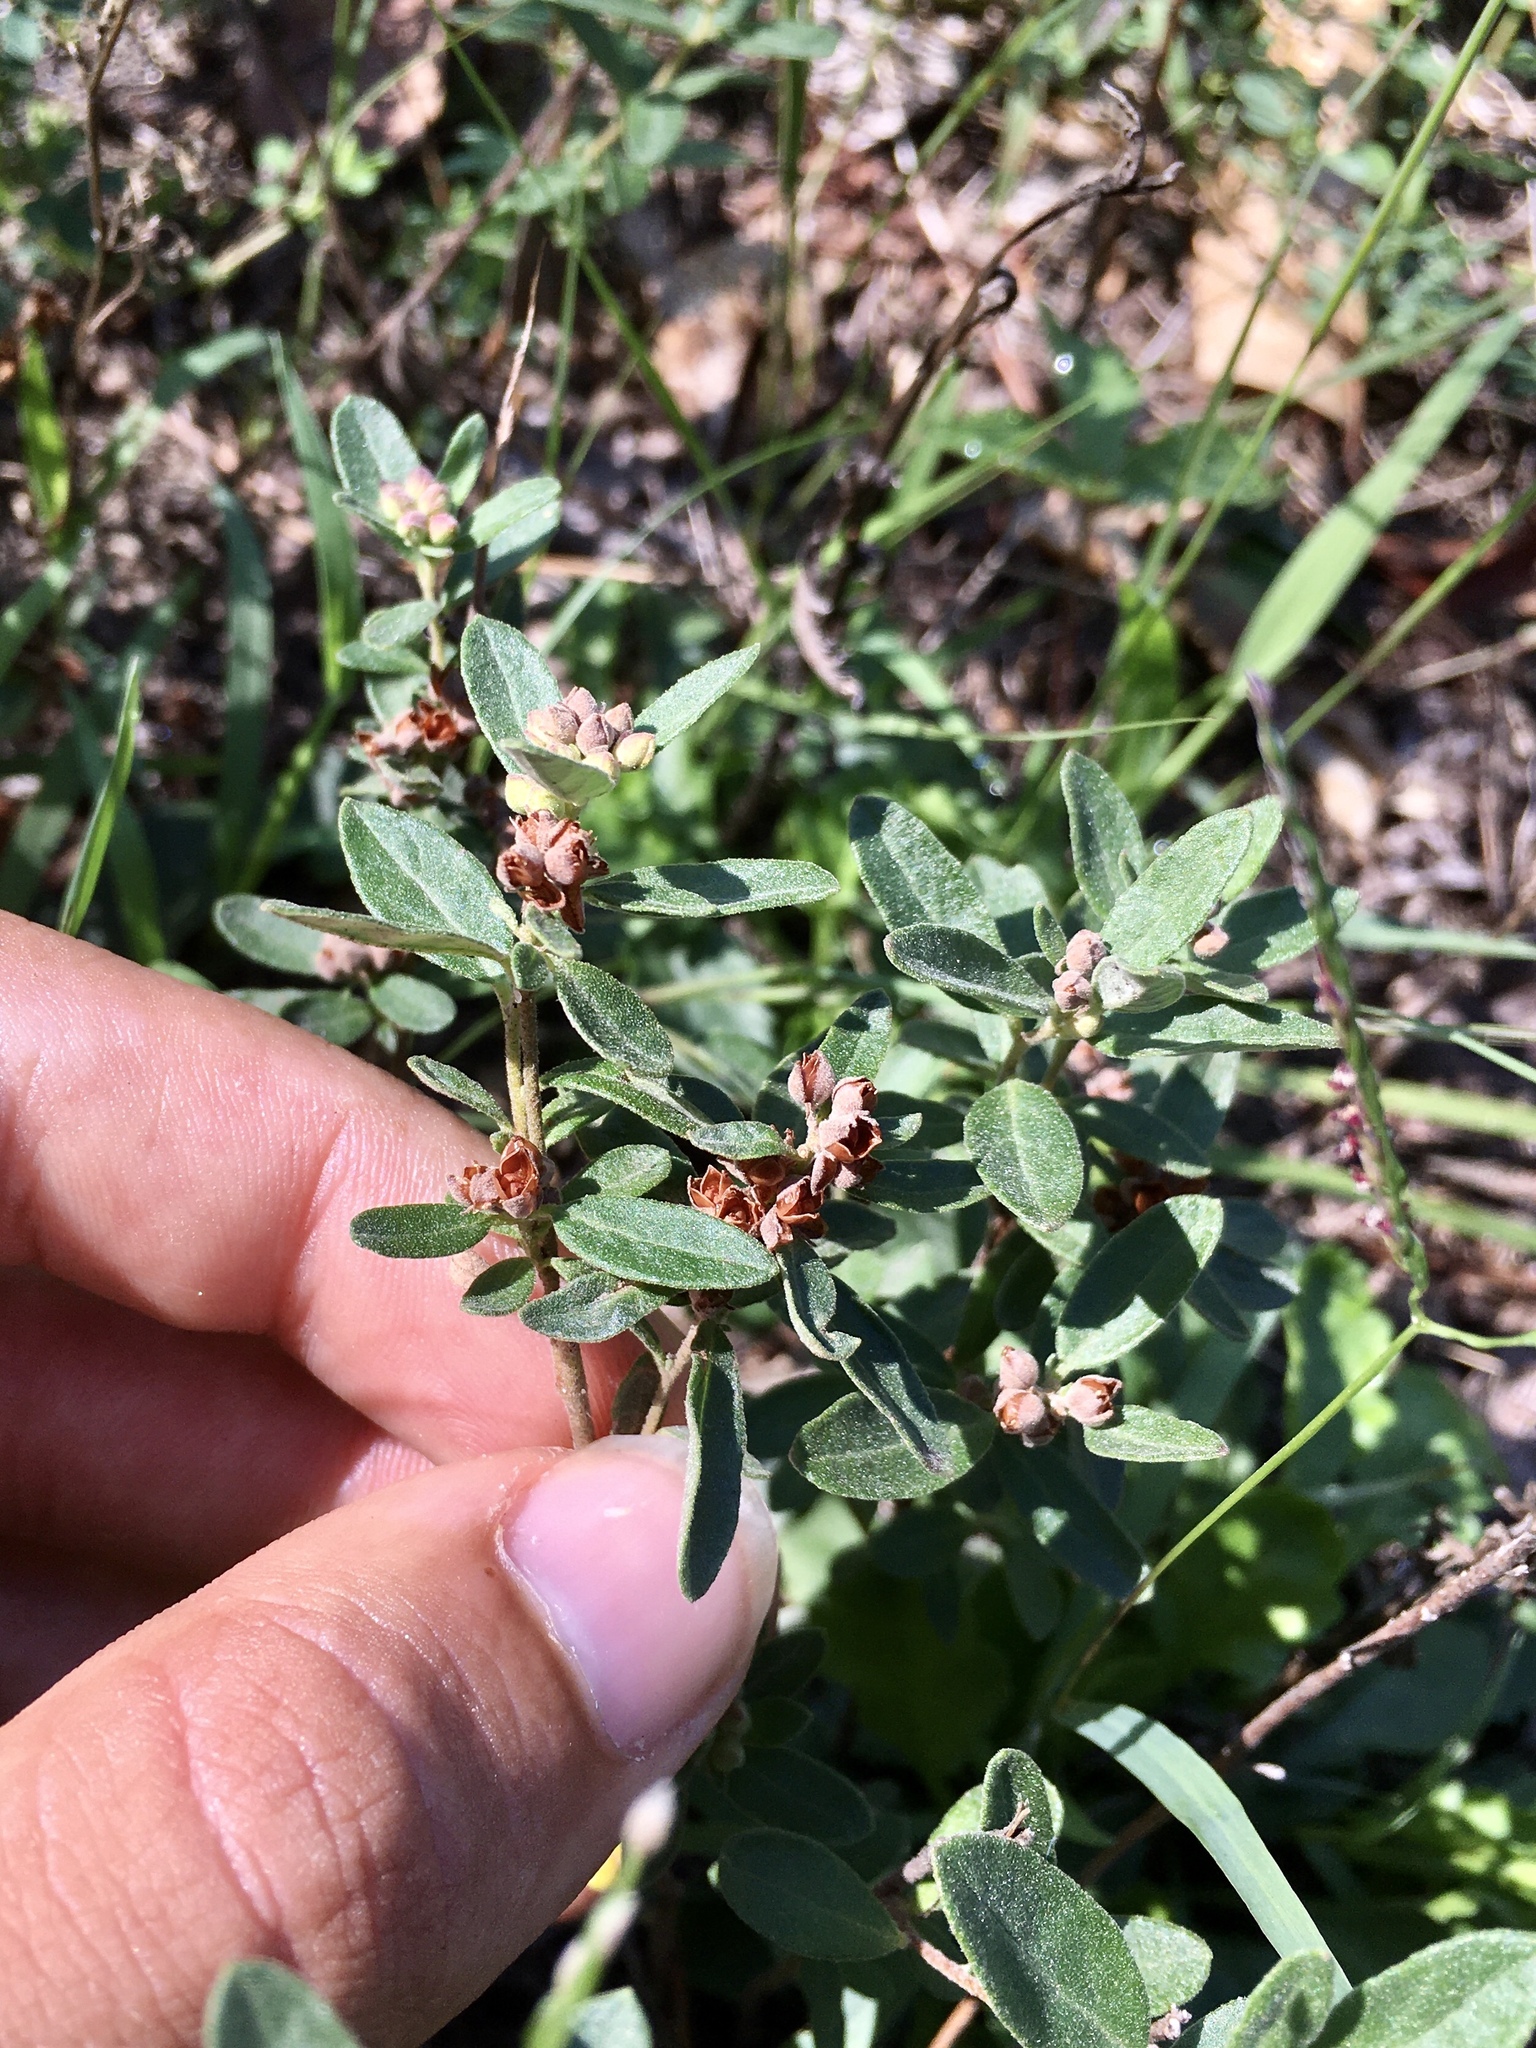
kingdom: Plantae
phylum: Tracheophyta
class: Magnoliopsida
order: Malvales
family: Cistaceae
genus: Crocanthemum
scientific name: Crocanthemum bicknellii
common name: Hoary frostweed
